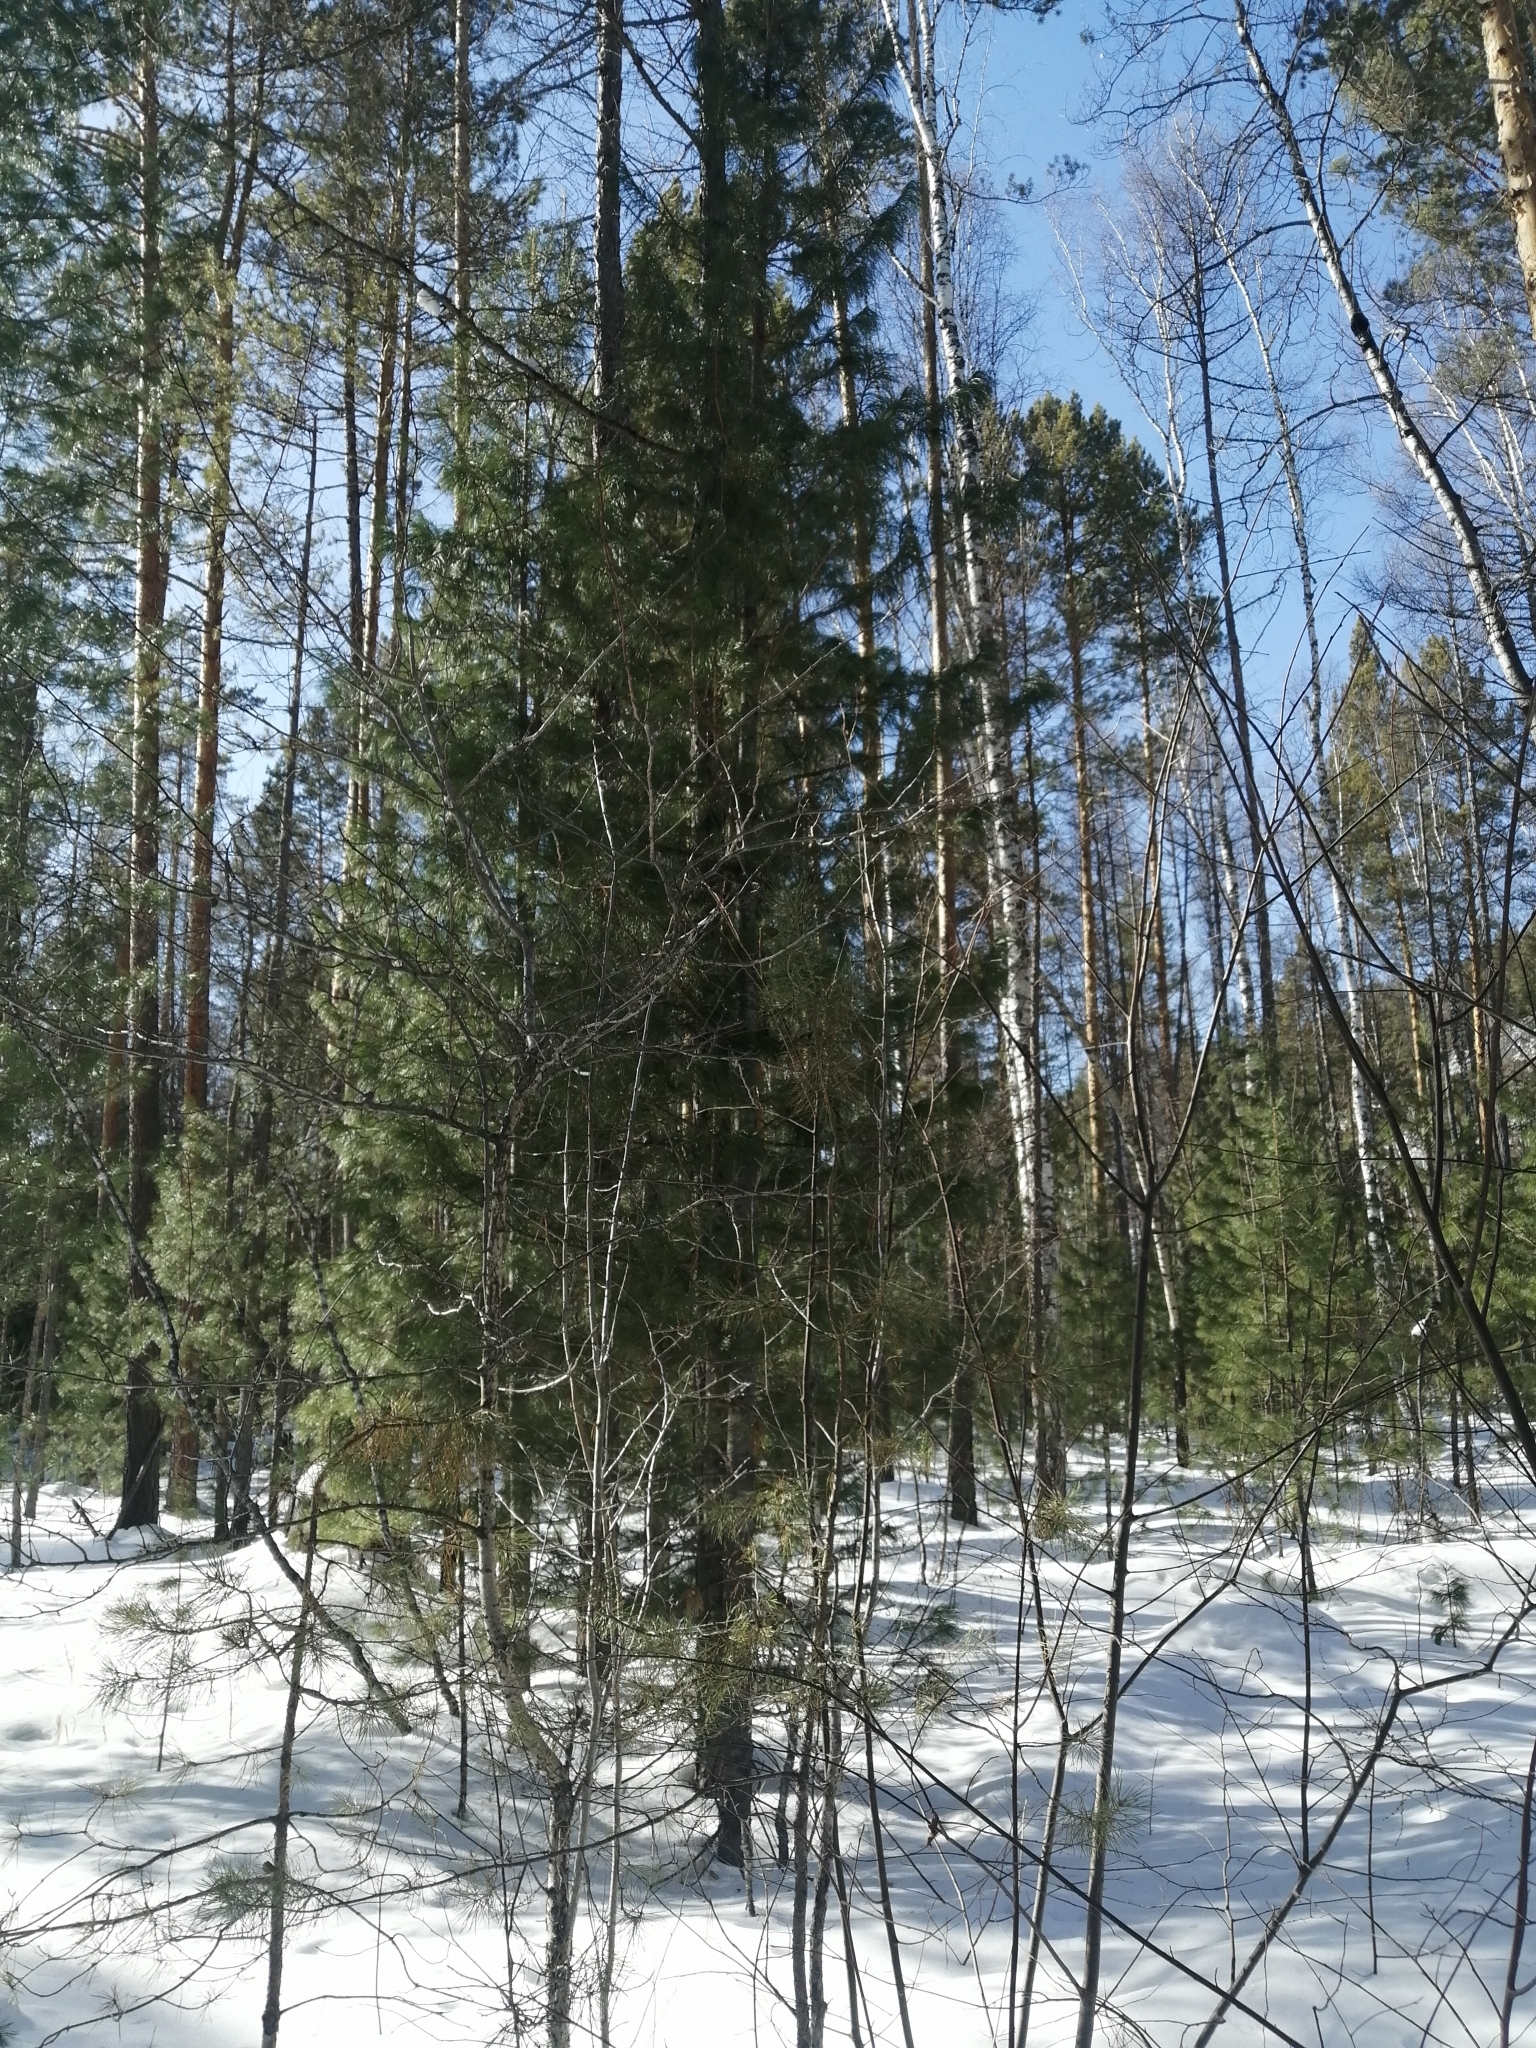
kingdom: Plantae
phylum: Tracheophyta
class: Pinopsida
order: Pinales
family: Pinaceae
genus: Pinus
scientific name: Pinus sibirica
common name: Siberian pine
